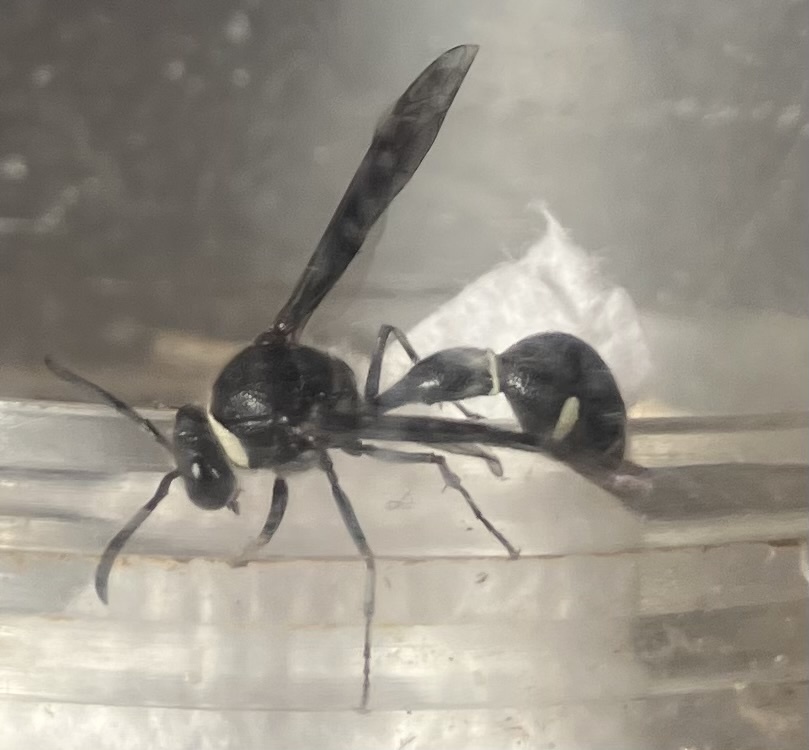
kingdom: Animalia
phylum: Arthropoda
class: Insecta
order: Hymenoptera
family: Vespidae
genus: Eumenes
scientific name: Eumenes fraternus
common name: Fraternal potter wasp
